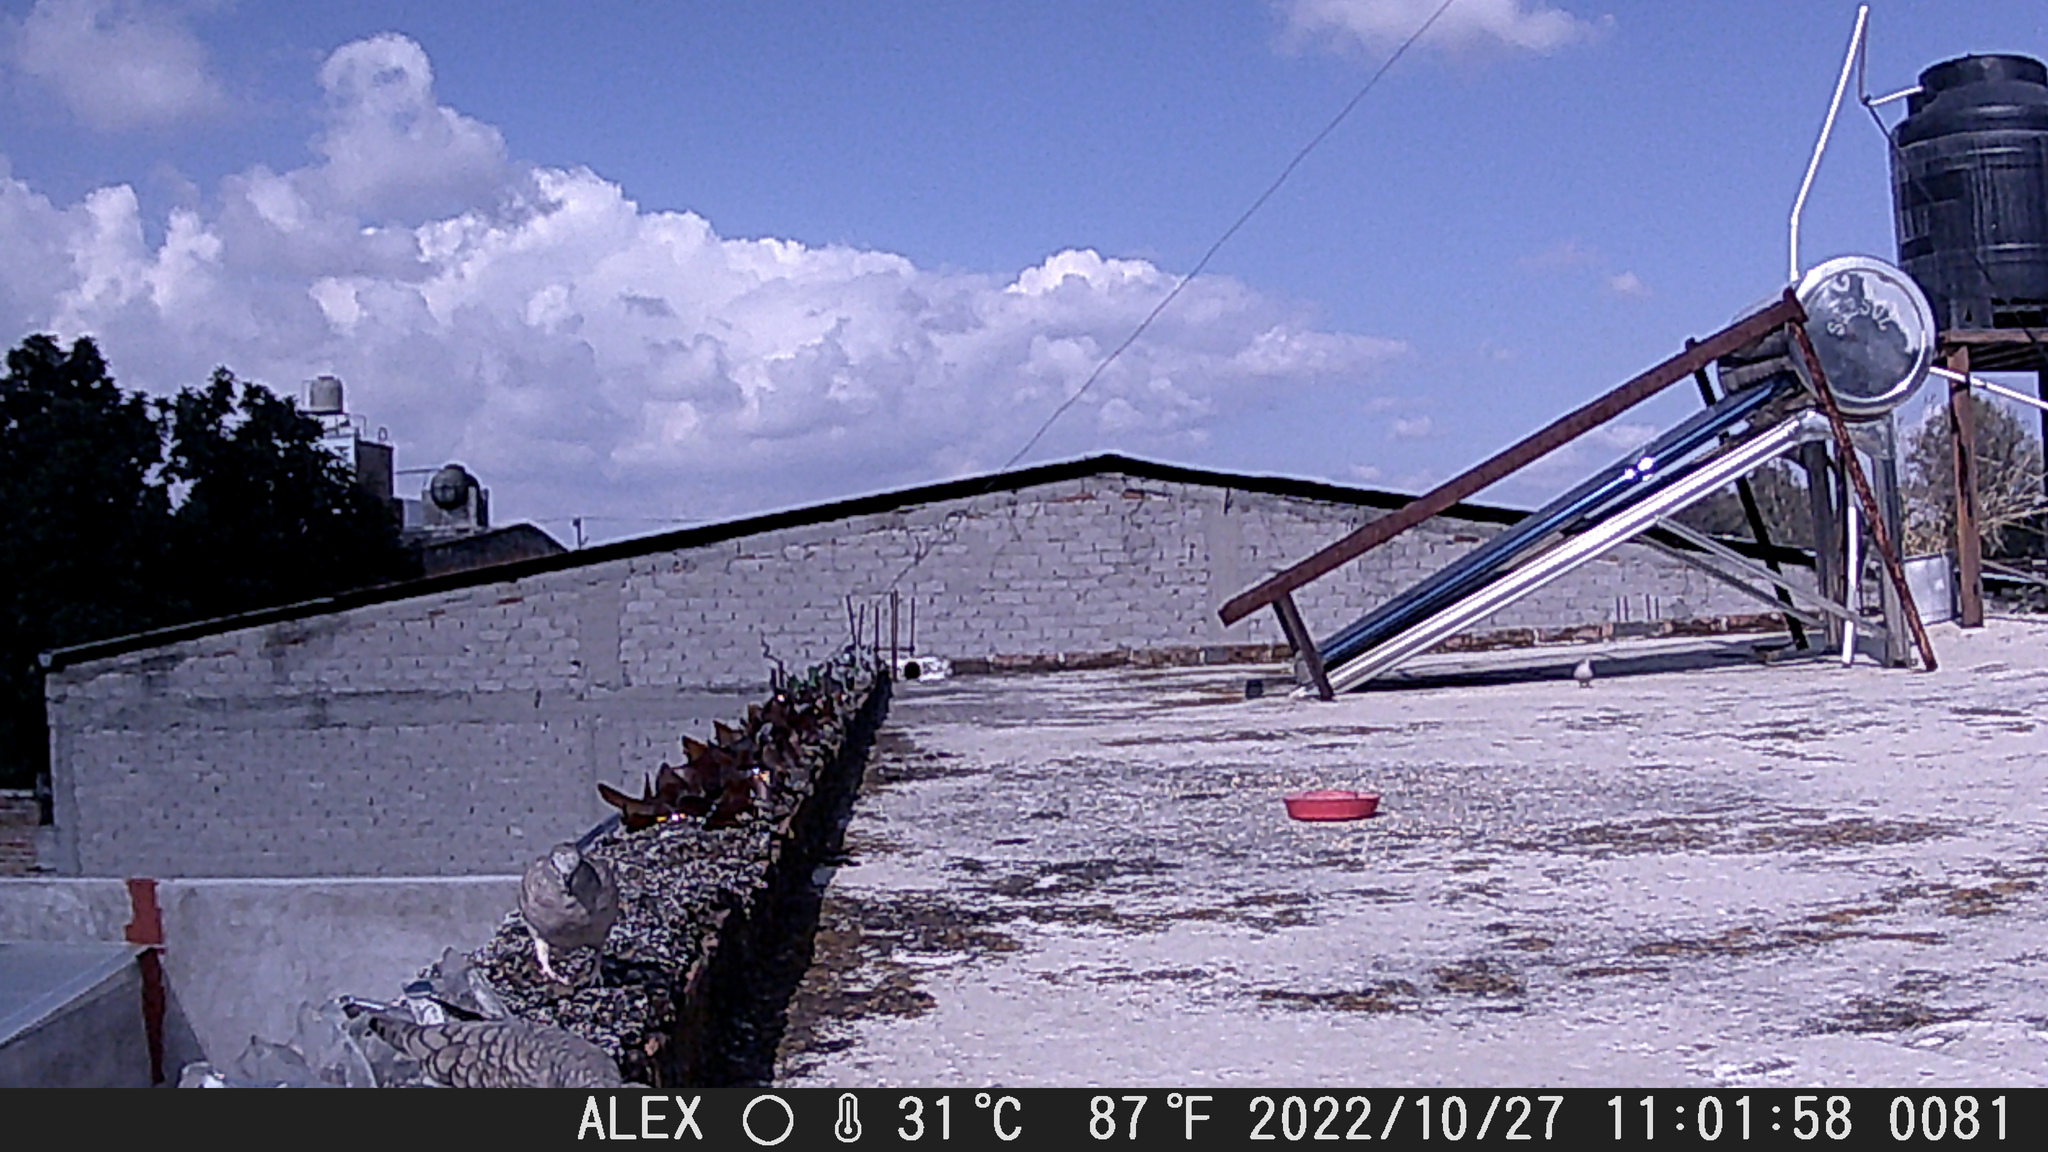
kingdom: Animalia
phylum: Chordata
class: Aves
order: Columbiformes
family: Columbidae
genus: Columbina
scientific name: Columbina inca
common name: Inca dove
